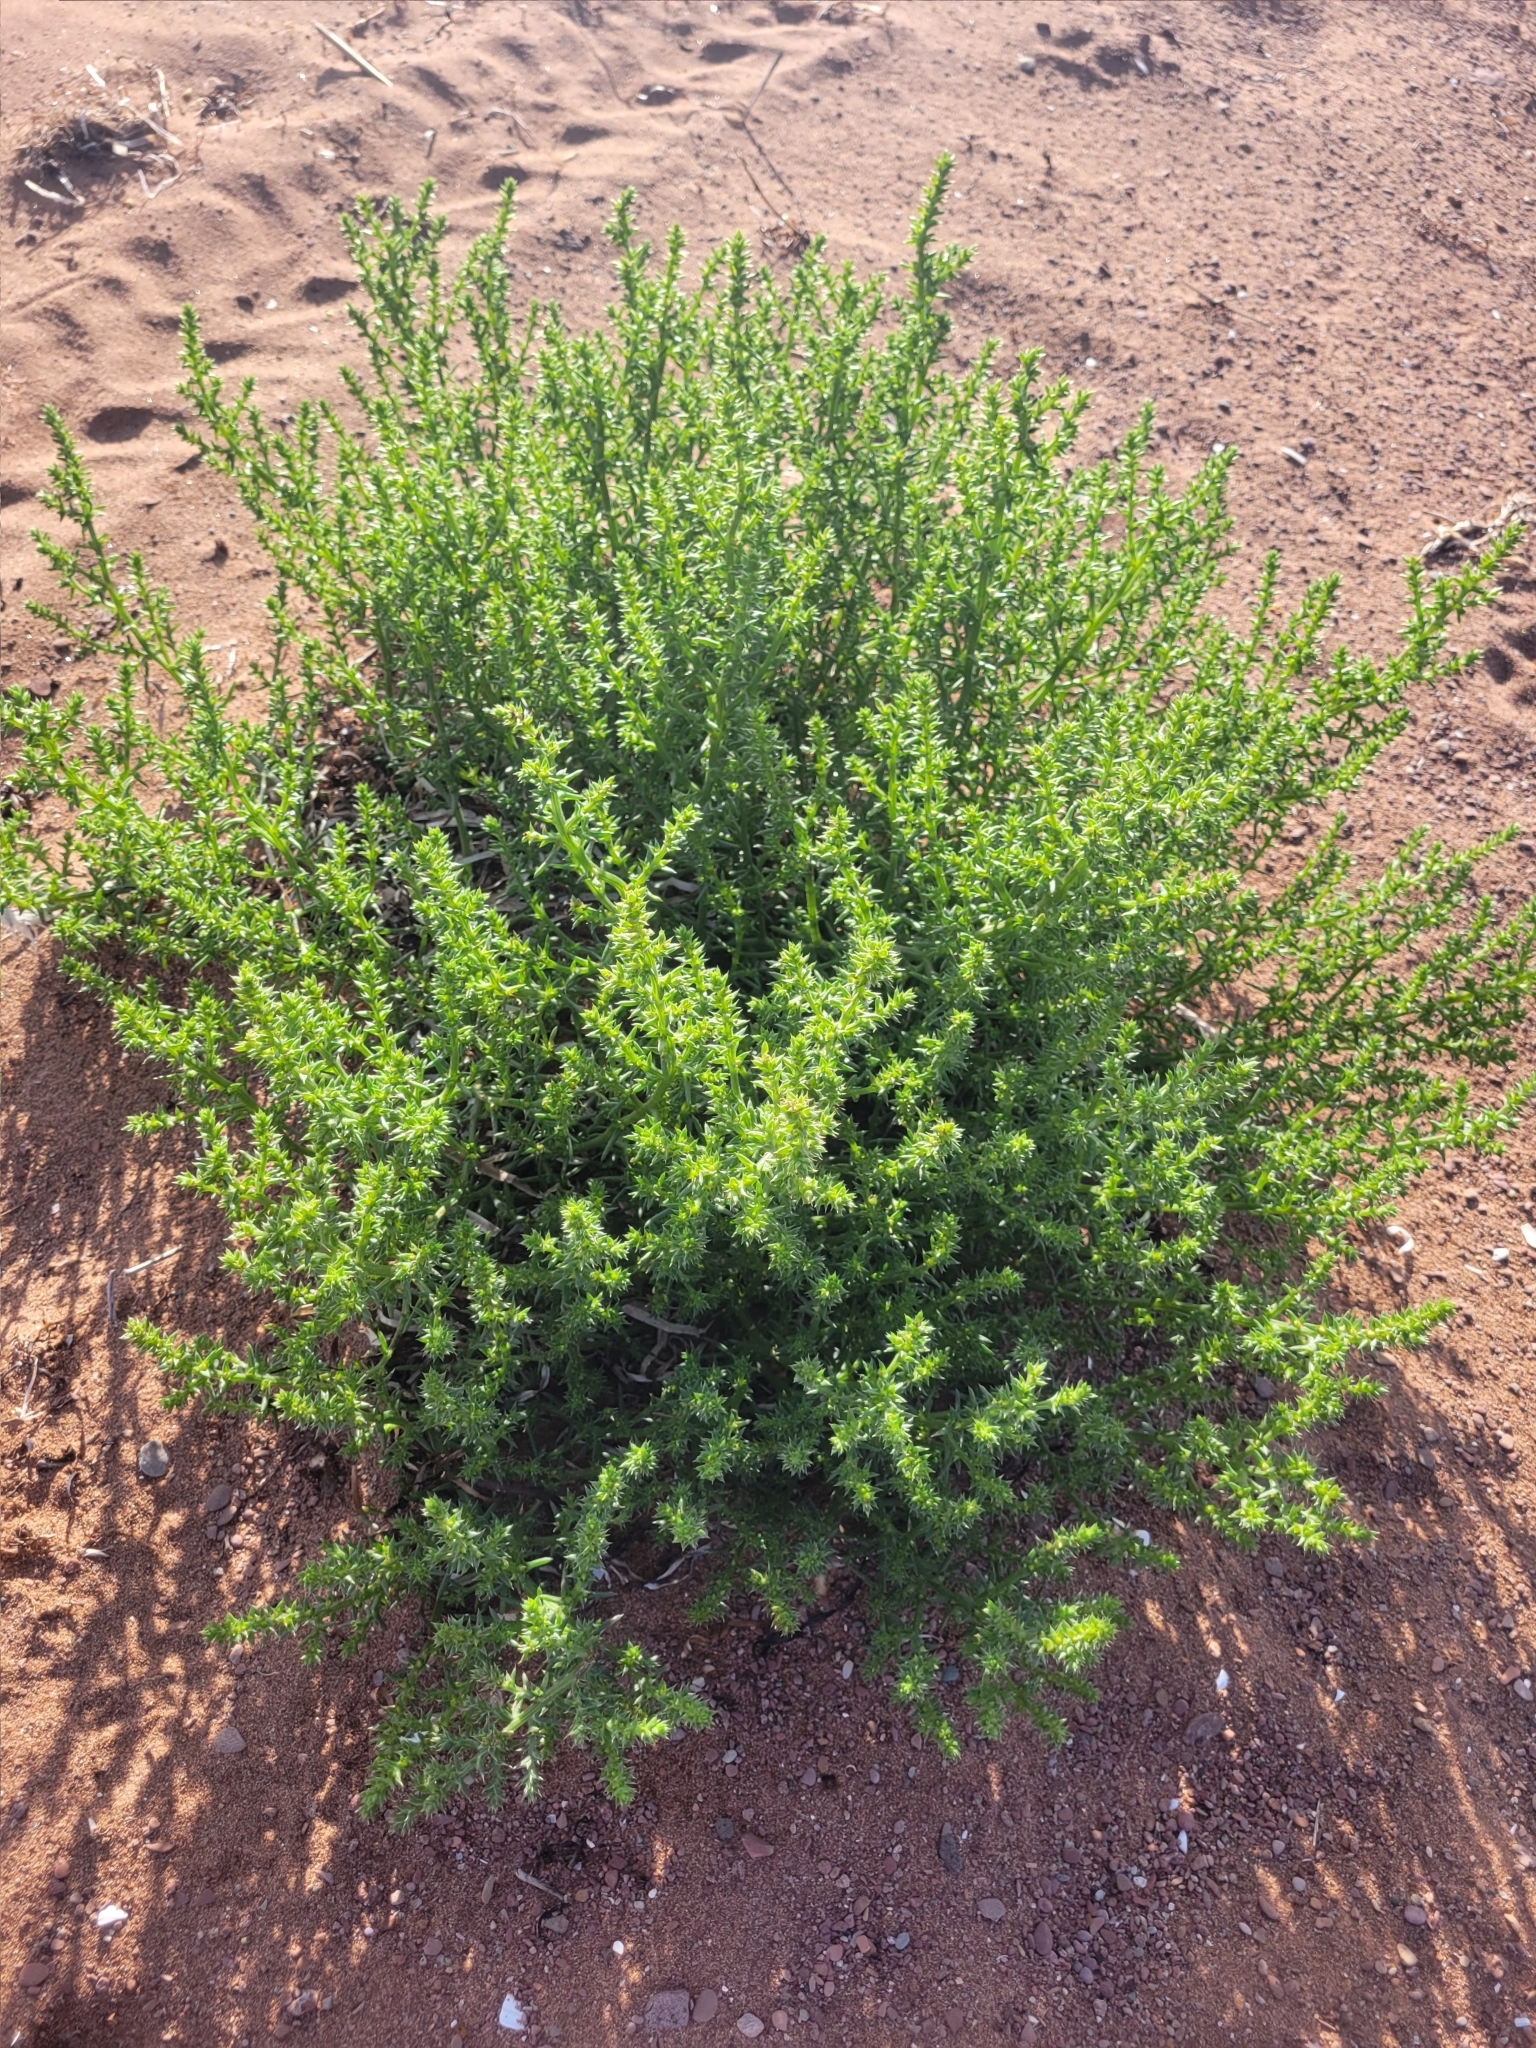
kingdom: Plantae
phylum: Tracheophyta
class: Magnoliopsida
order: Caryophyllales
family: Amaranthaceae
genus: Salsola
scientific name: Salsola kali
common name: Saltwort
